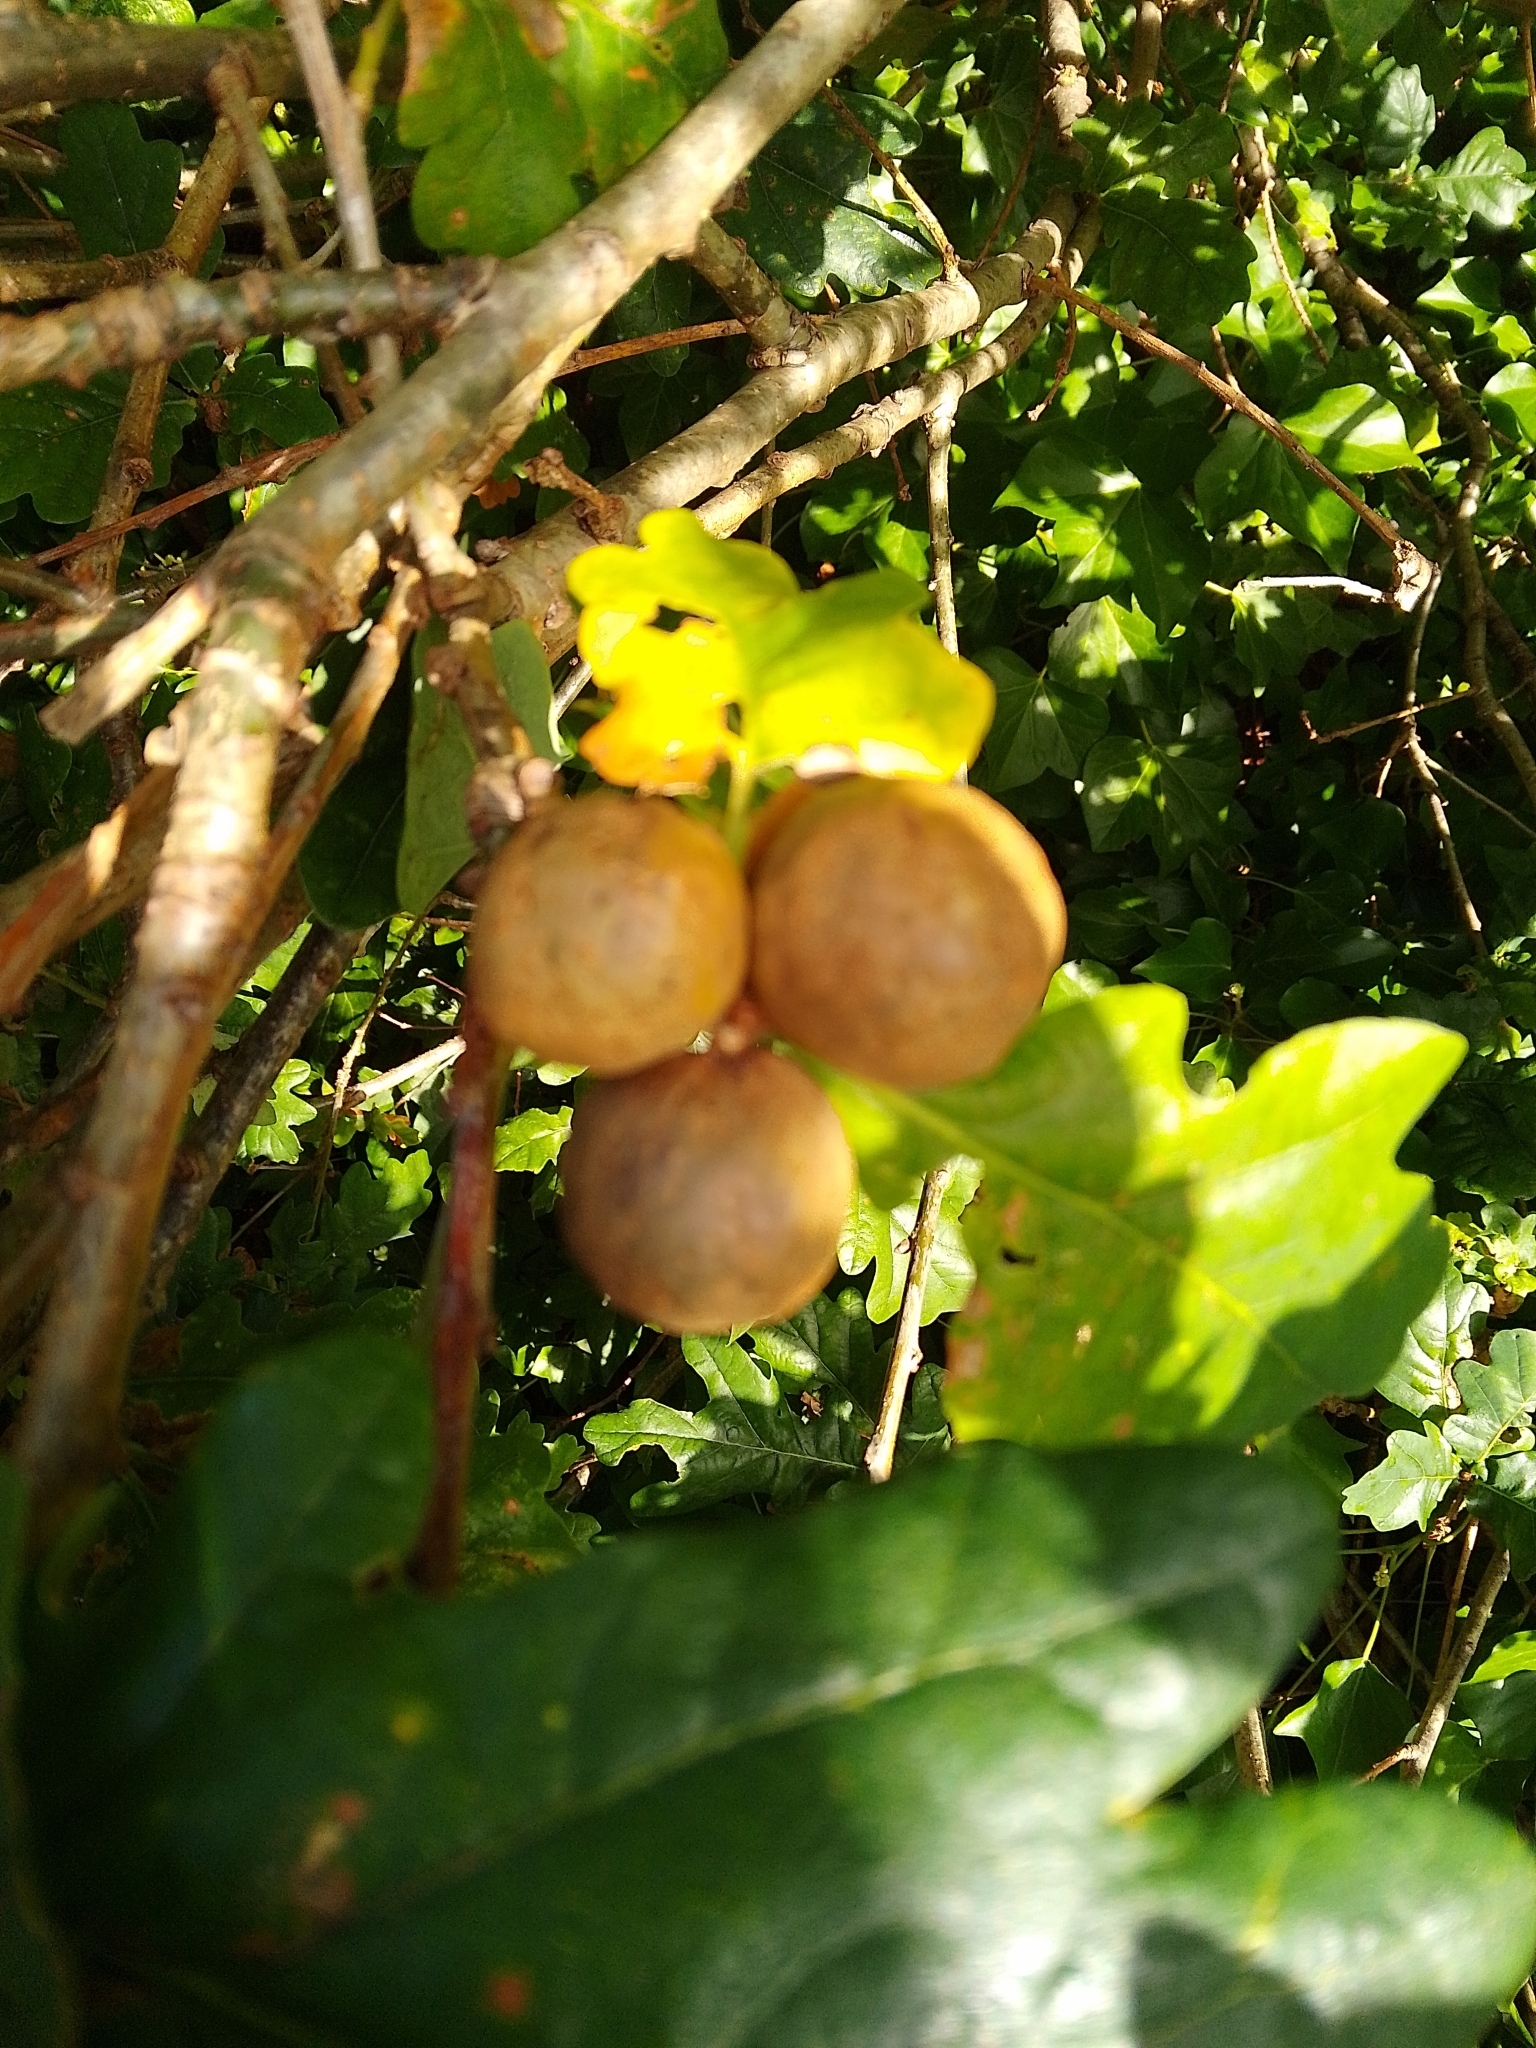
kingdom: Animalia
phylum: Arthropoda
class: Insecta
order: Hymenoptera
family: Cynipidae
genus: Andricus
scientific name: Andricus kollari
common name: Marble gall
